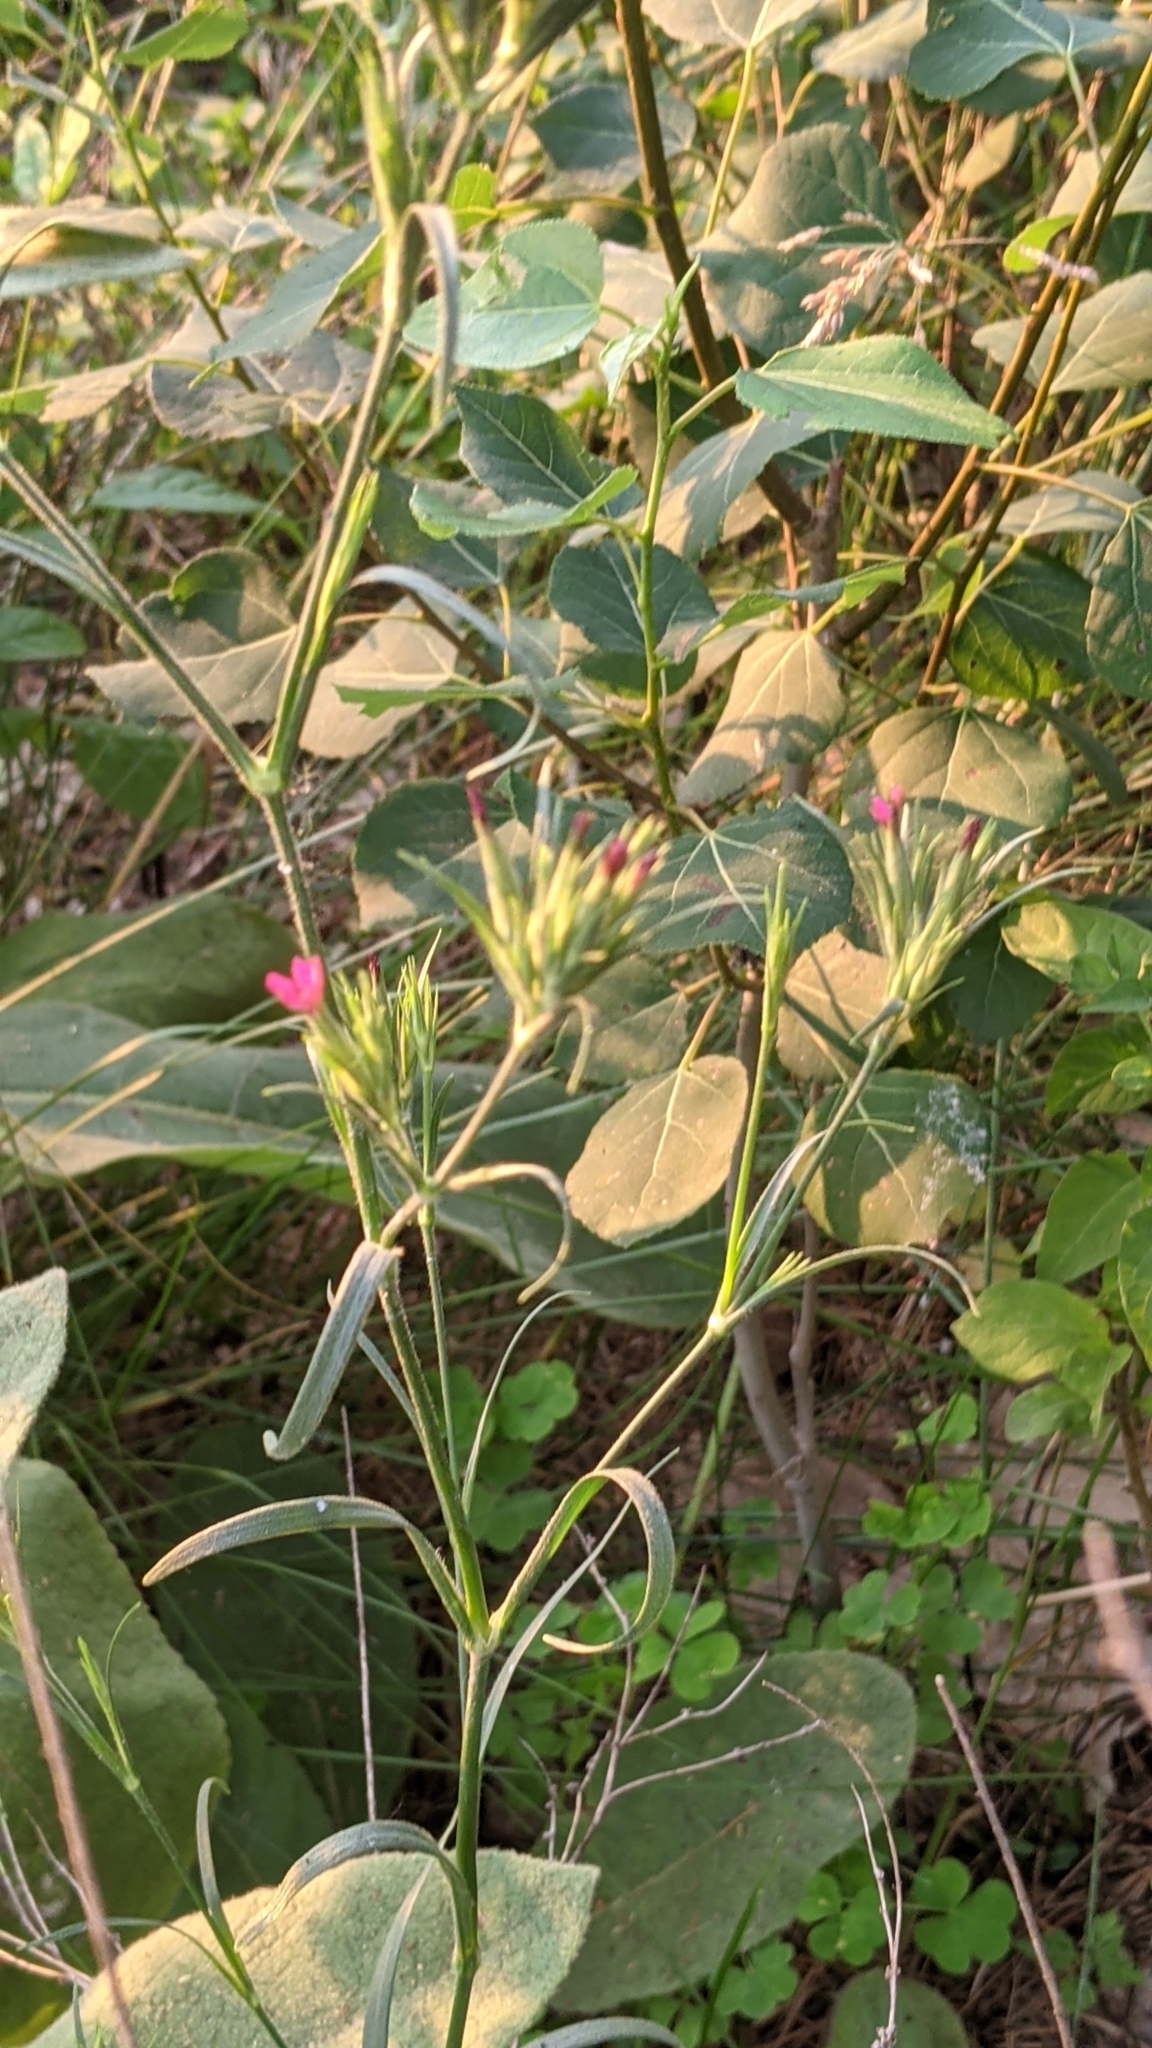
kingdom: Plantae
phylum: Tracheophyta
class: Magnoliopsida
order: Caryophyllales
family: Caryophyllaceae
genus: Dianthus
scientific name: Dianthus armeria
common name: Deptford pink
